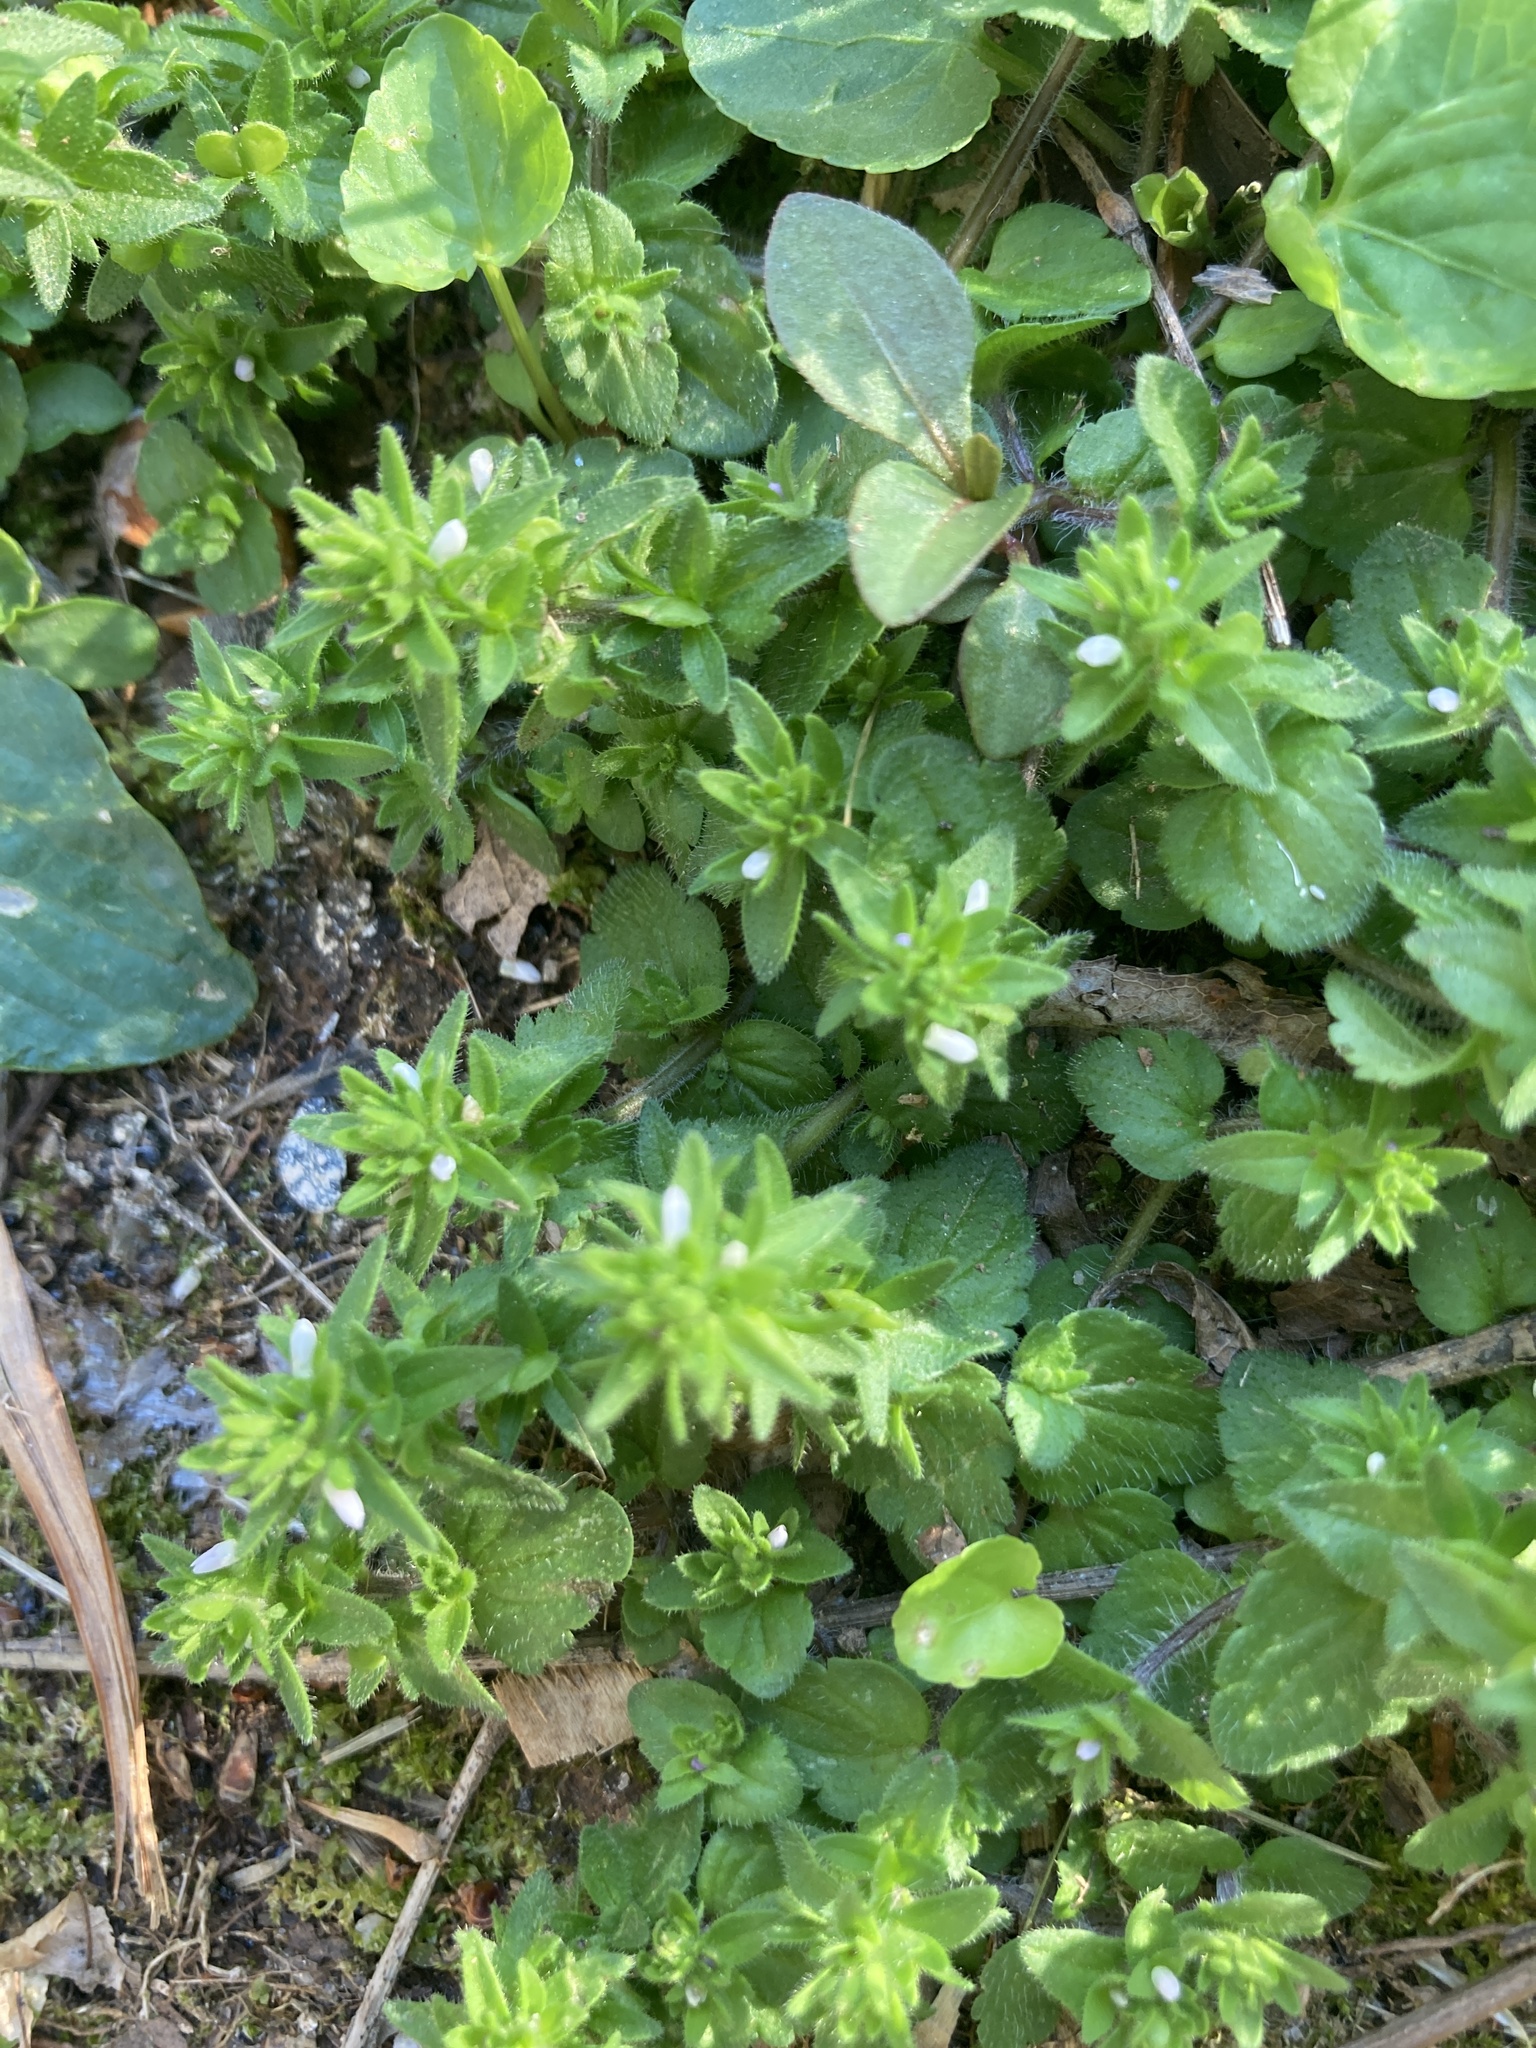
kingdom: Plantae
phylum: Tracheophyta
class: Magnoliopsida
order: Lamiales
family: Plantaginaceae
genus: Veronica
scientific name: Veronica arvensis
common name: Corn speedwell
